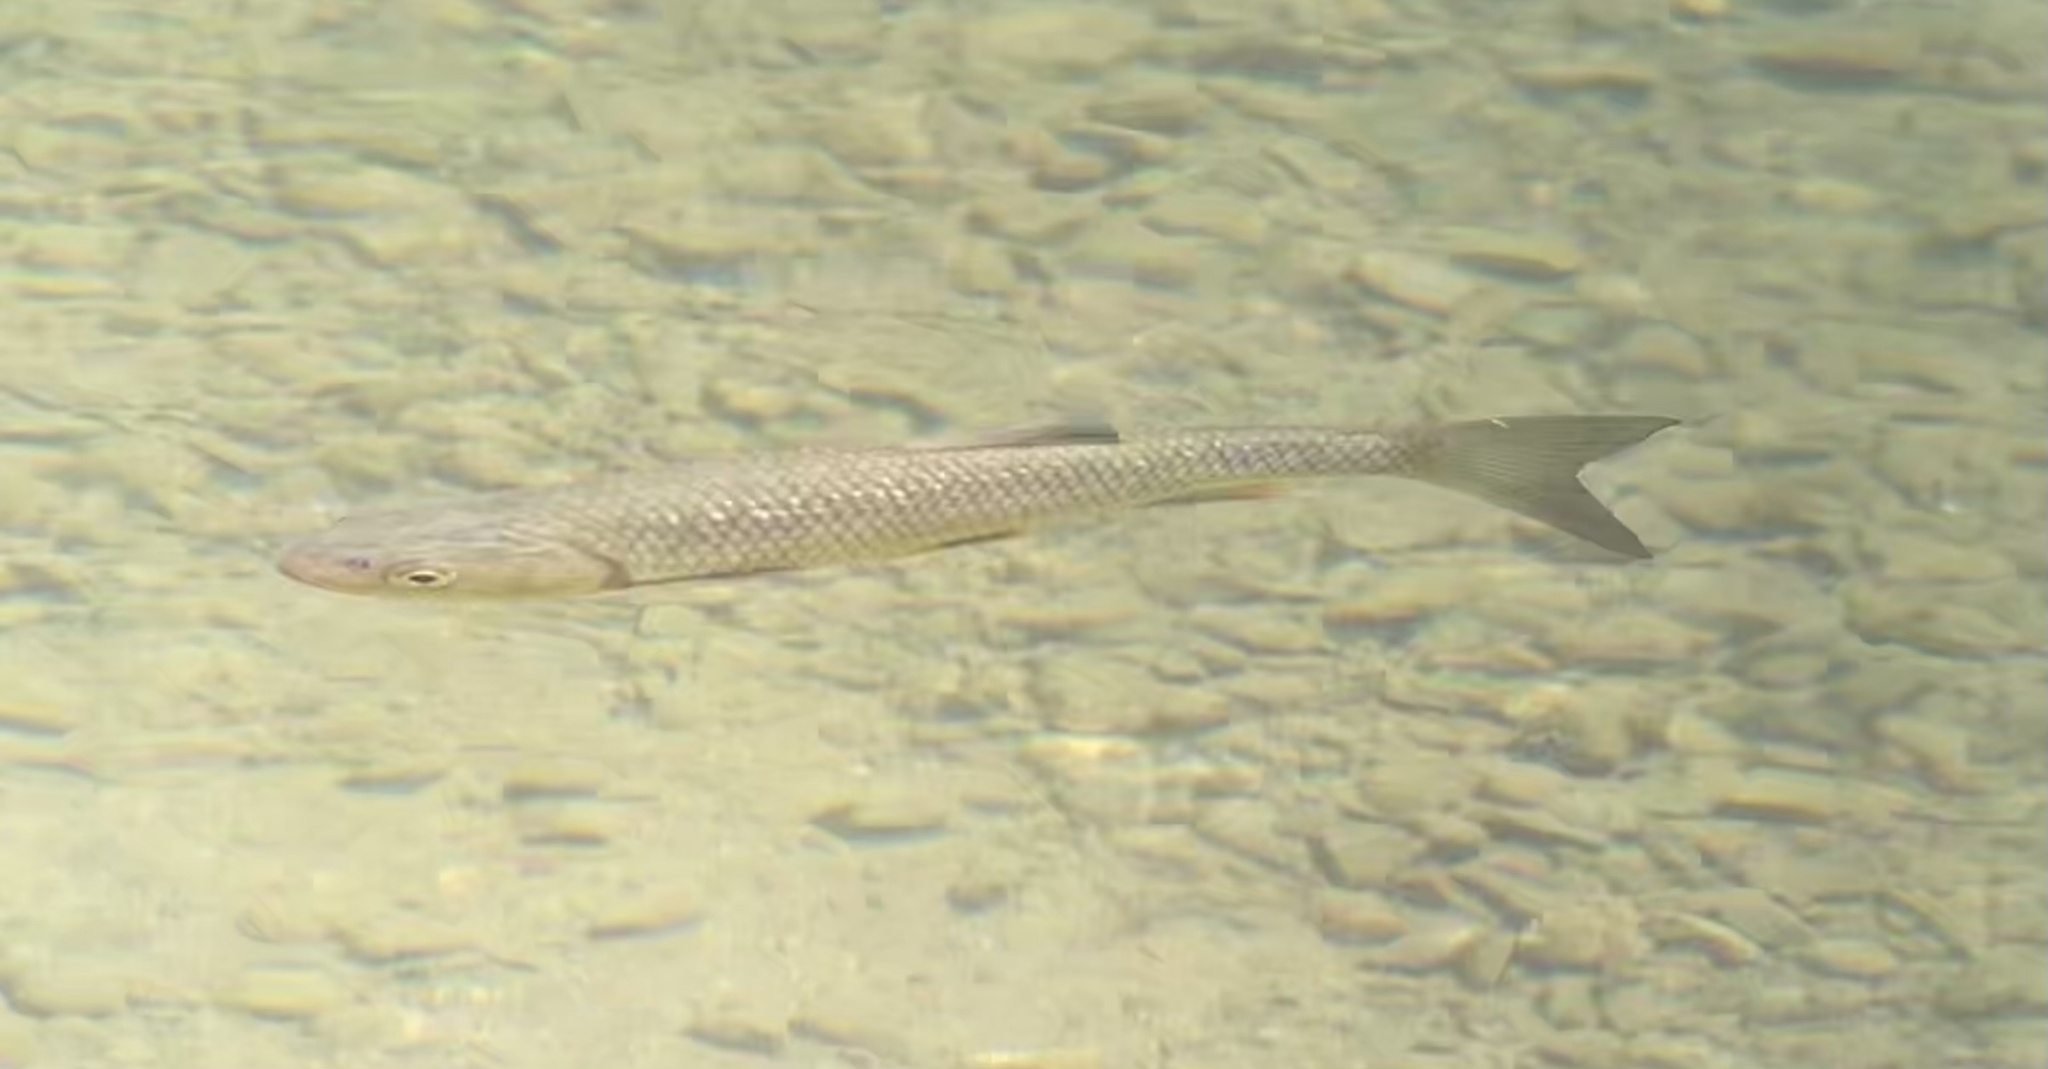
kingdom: Animalia
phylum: Chordata
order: Cypriniformes
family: Cyprinidae
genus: Squalius
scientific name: Squalius cephalus
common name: Chub
